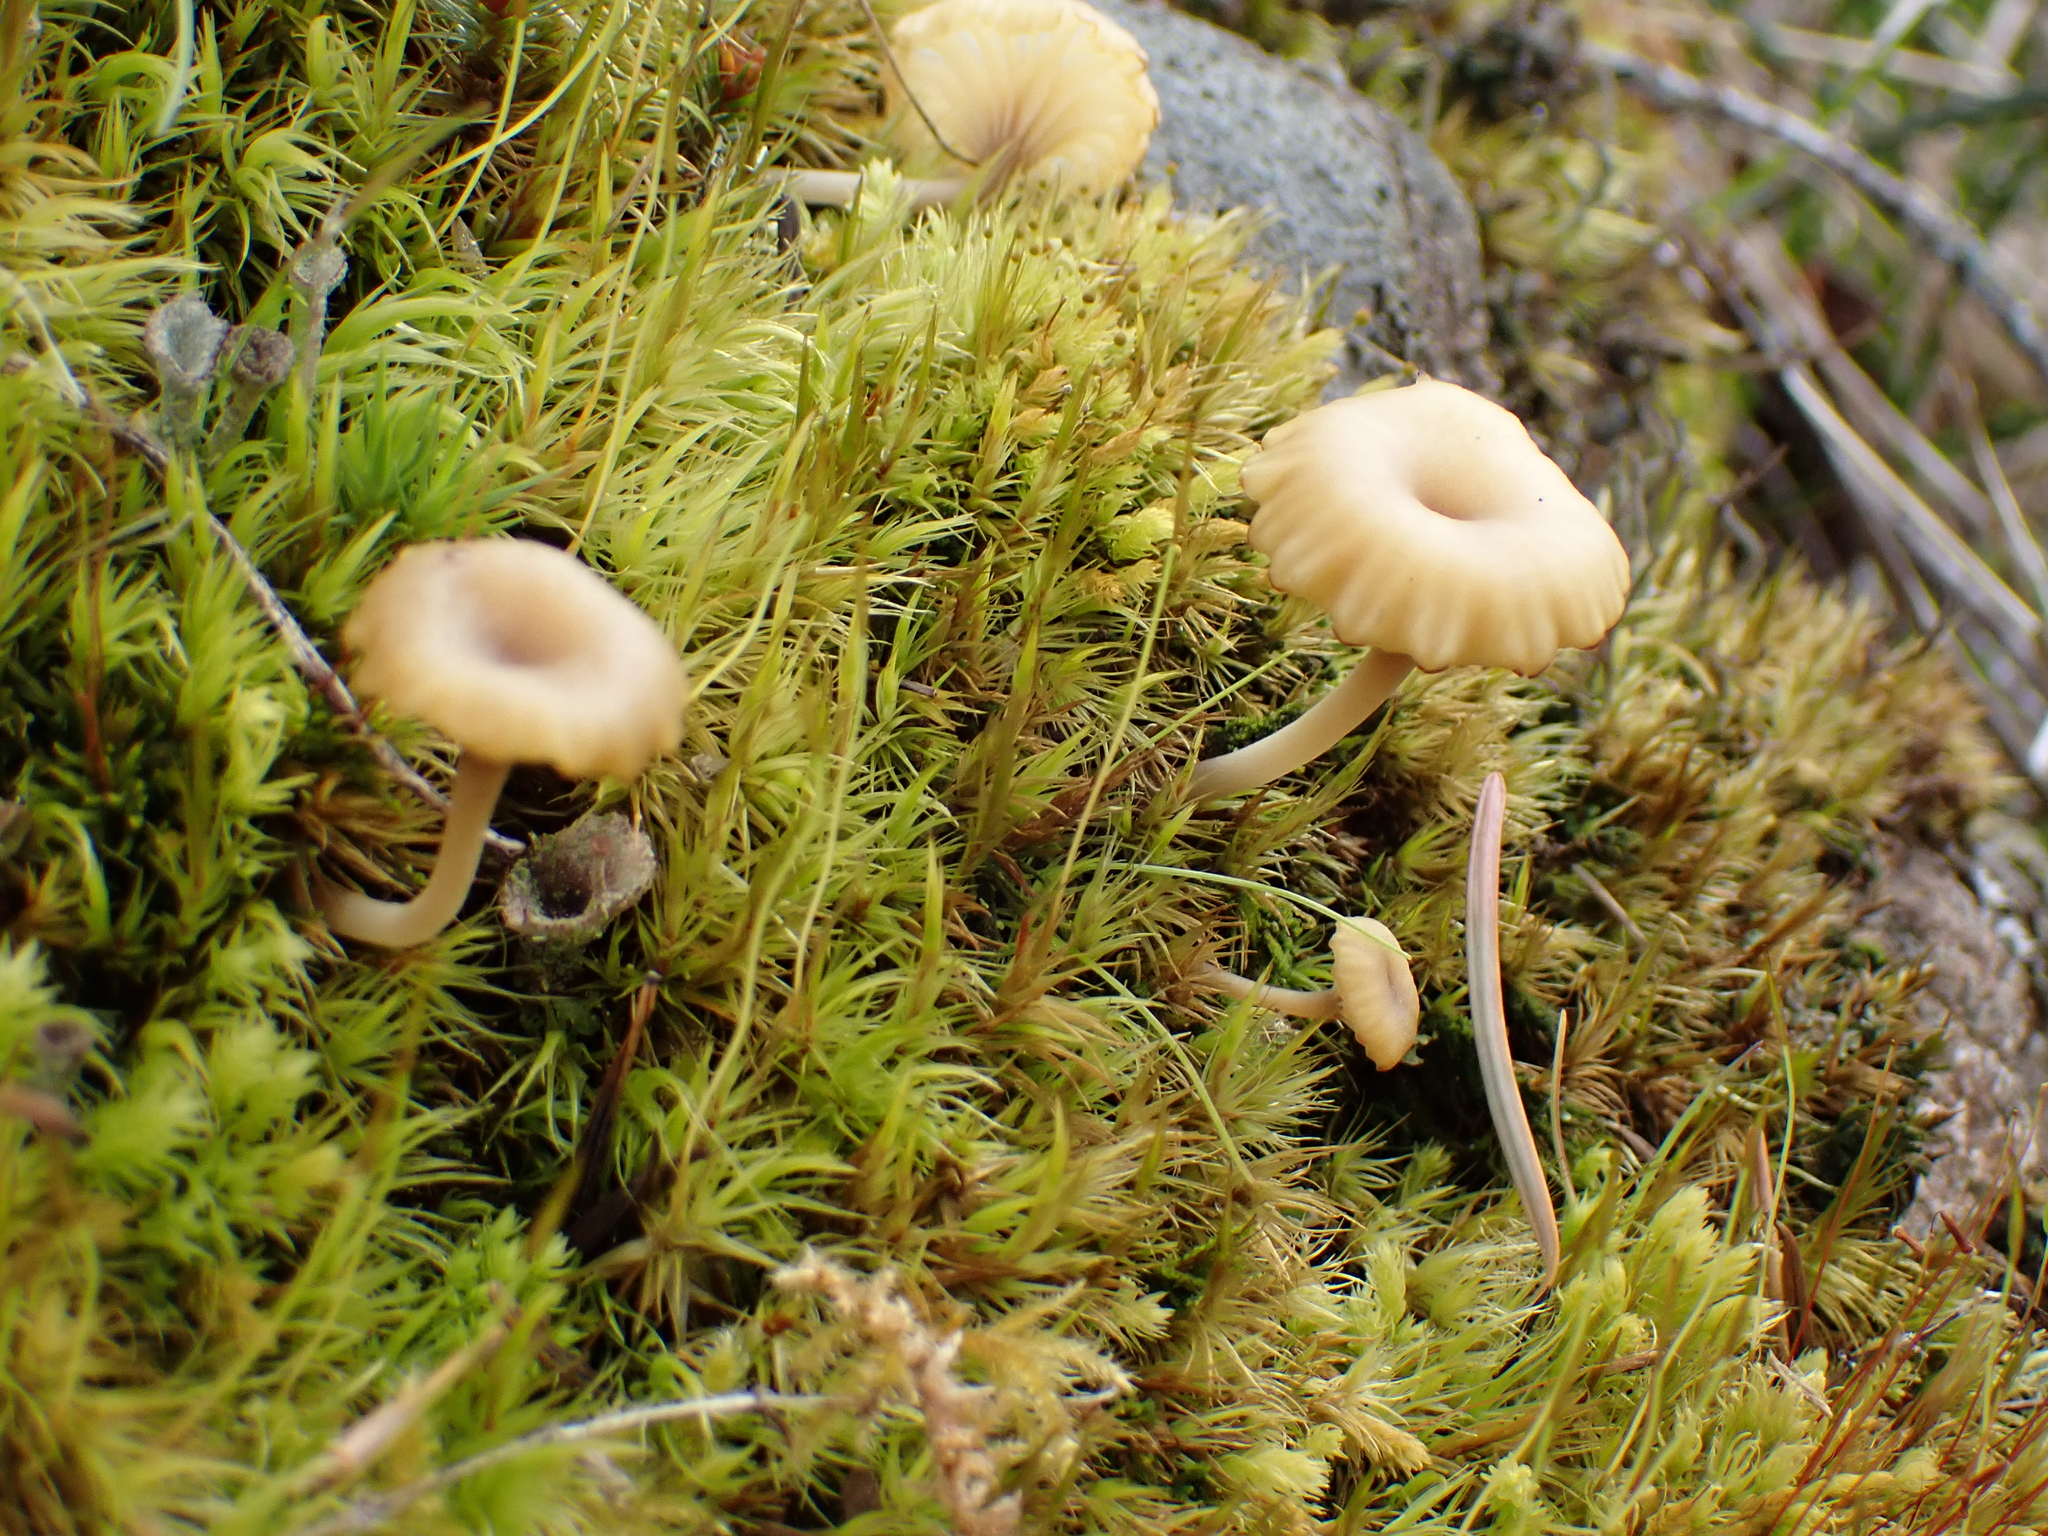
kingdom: Fungi
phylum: Basidiomycota
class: Agaricomycetes
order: Agaricales
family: Hygrophoraceae
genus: Lichenomphalia
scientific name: Lichenomphalia
